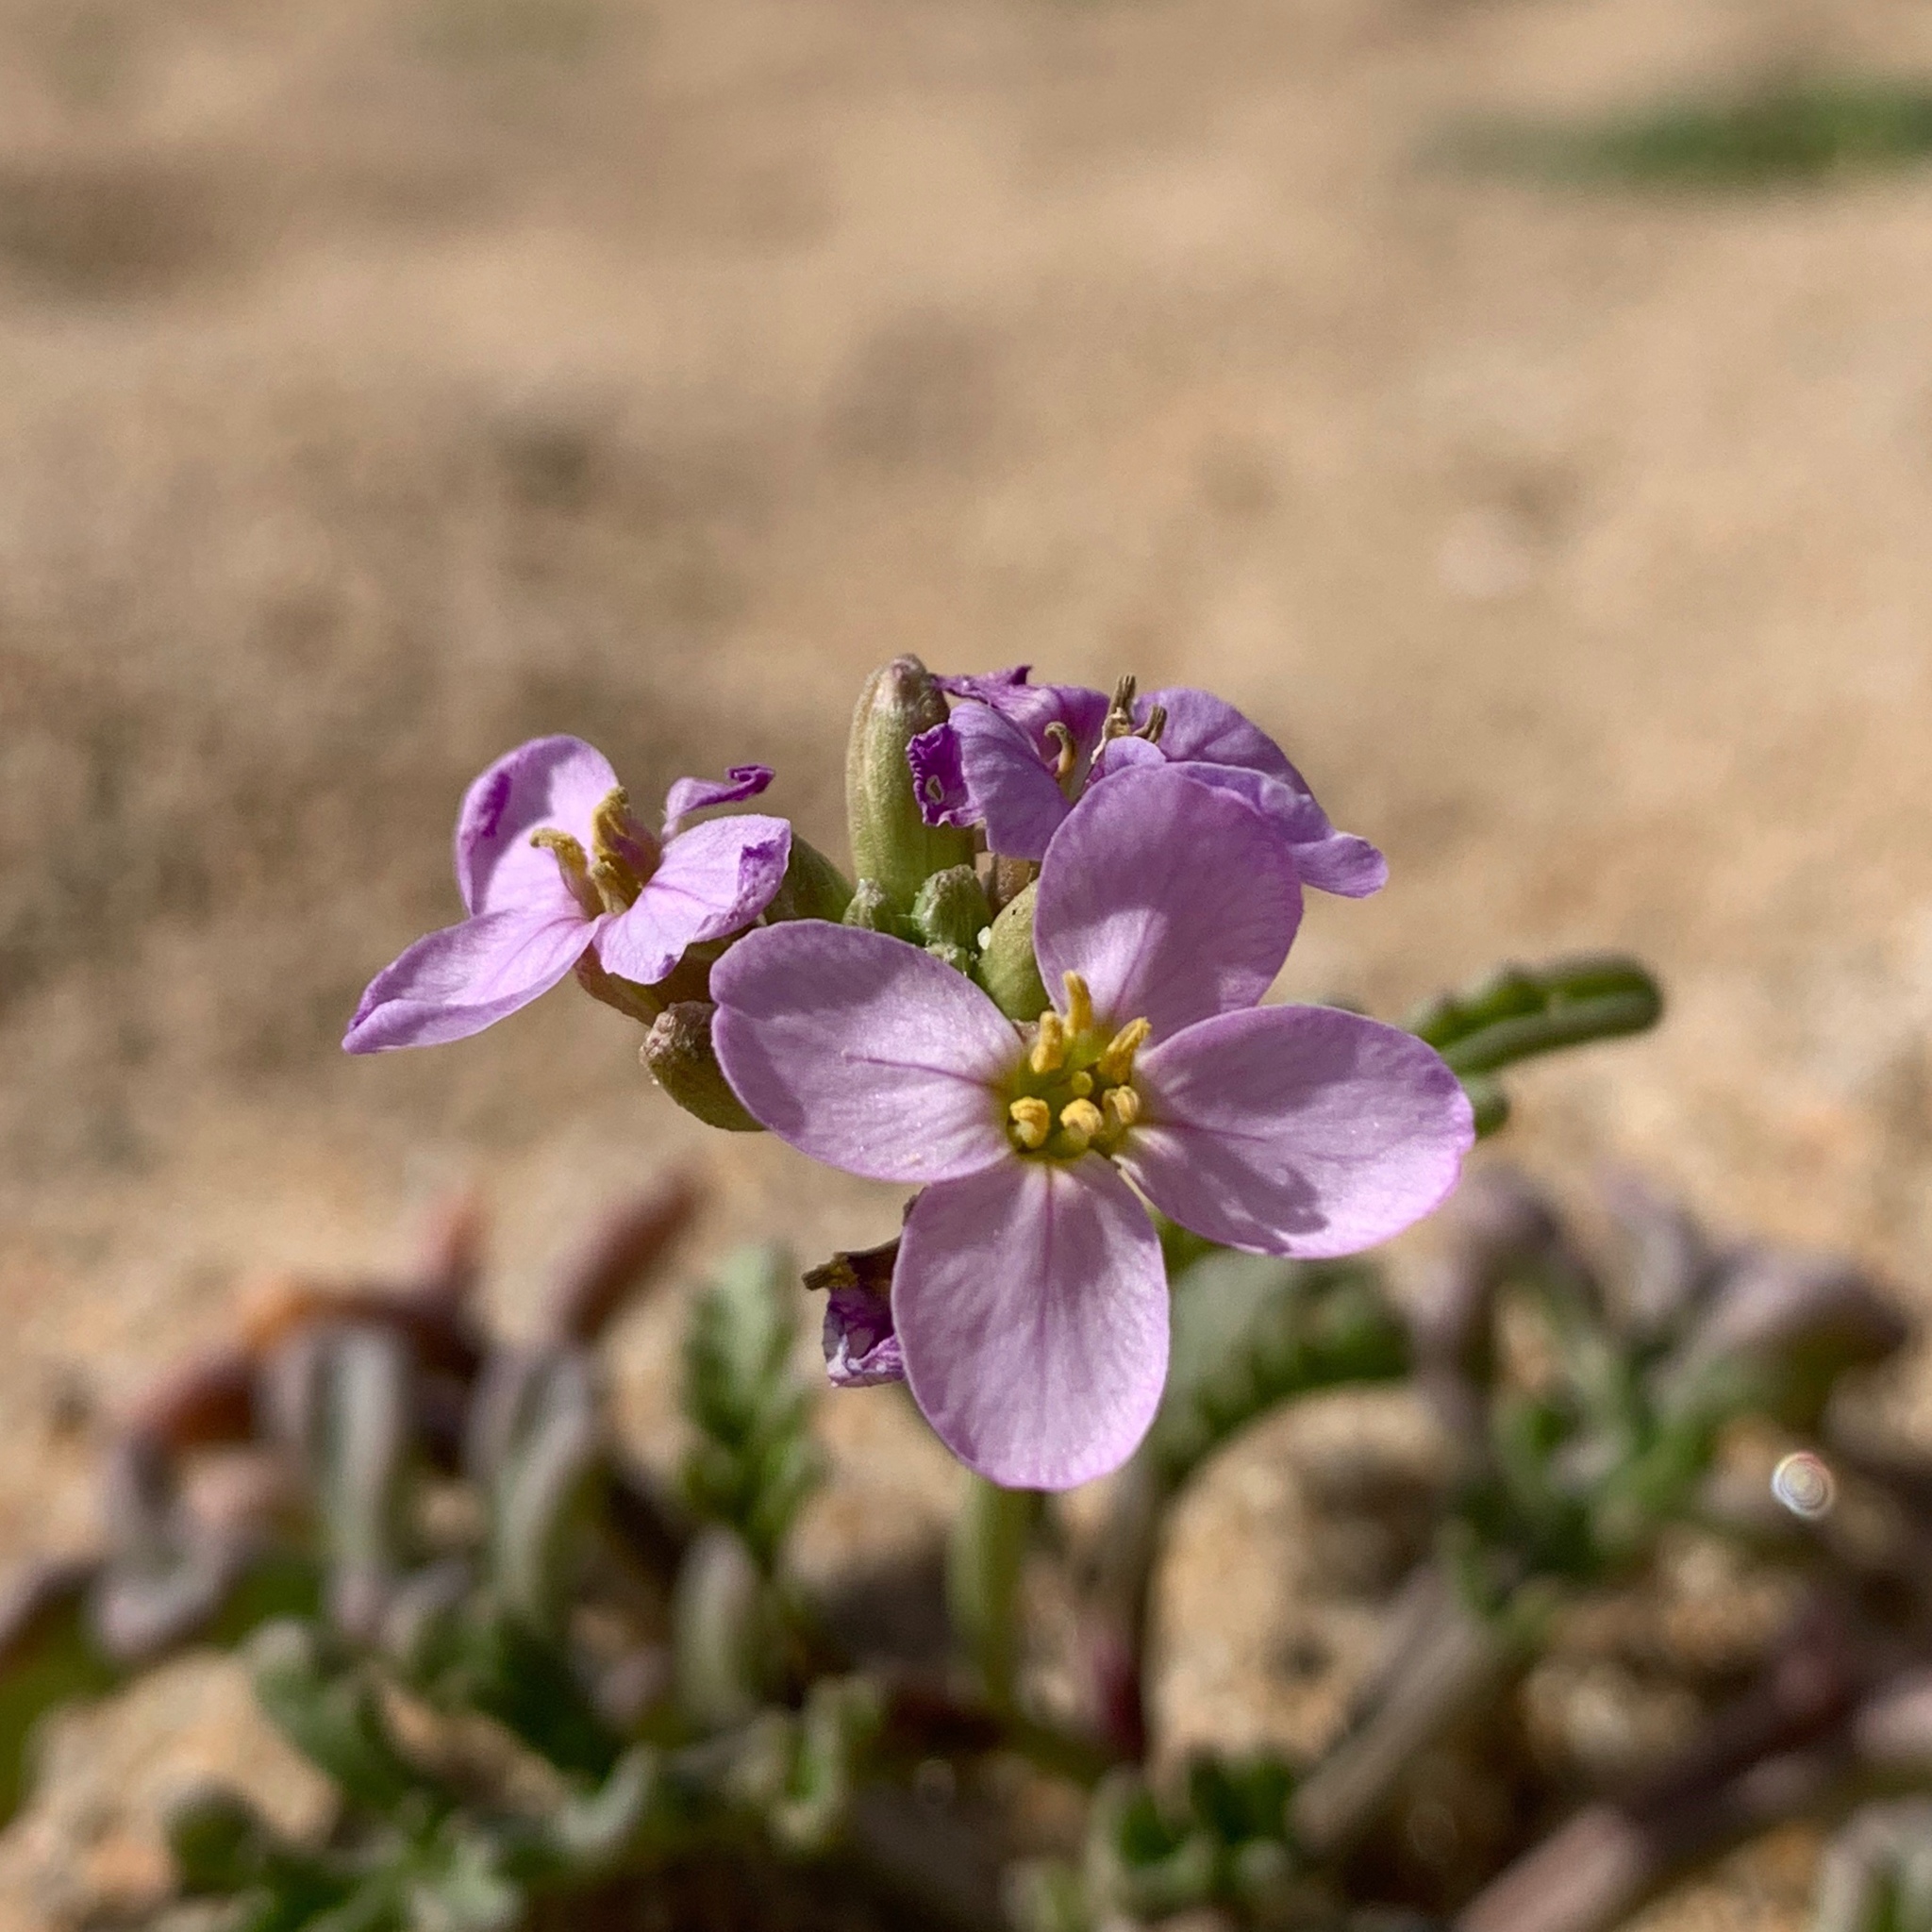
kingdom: Plantae
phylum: Tracheophyta
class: Magnoliopsida
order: Brassicales
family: Brassicaceae
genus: Cakile
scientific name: Cakile maritima
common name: Sea rocket
